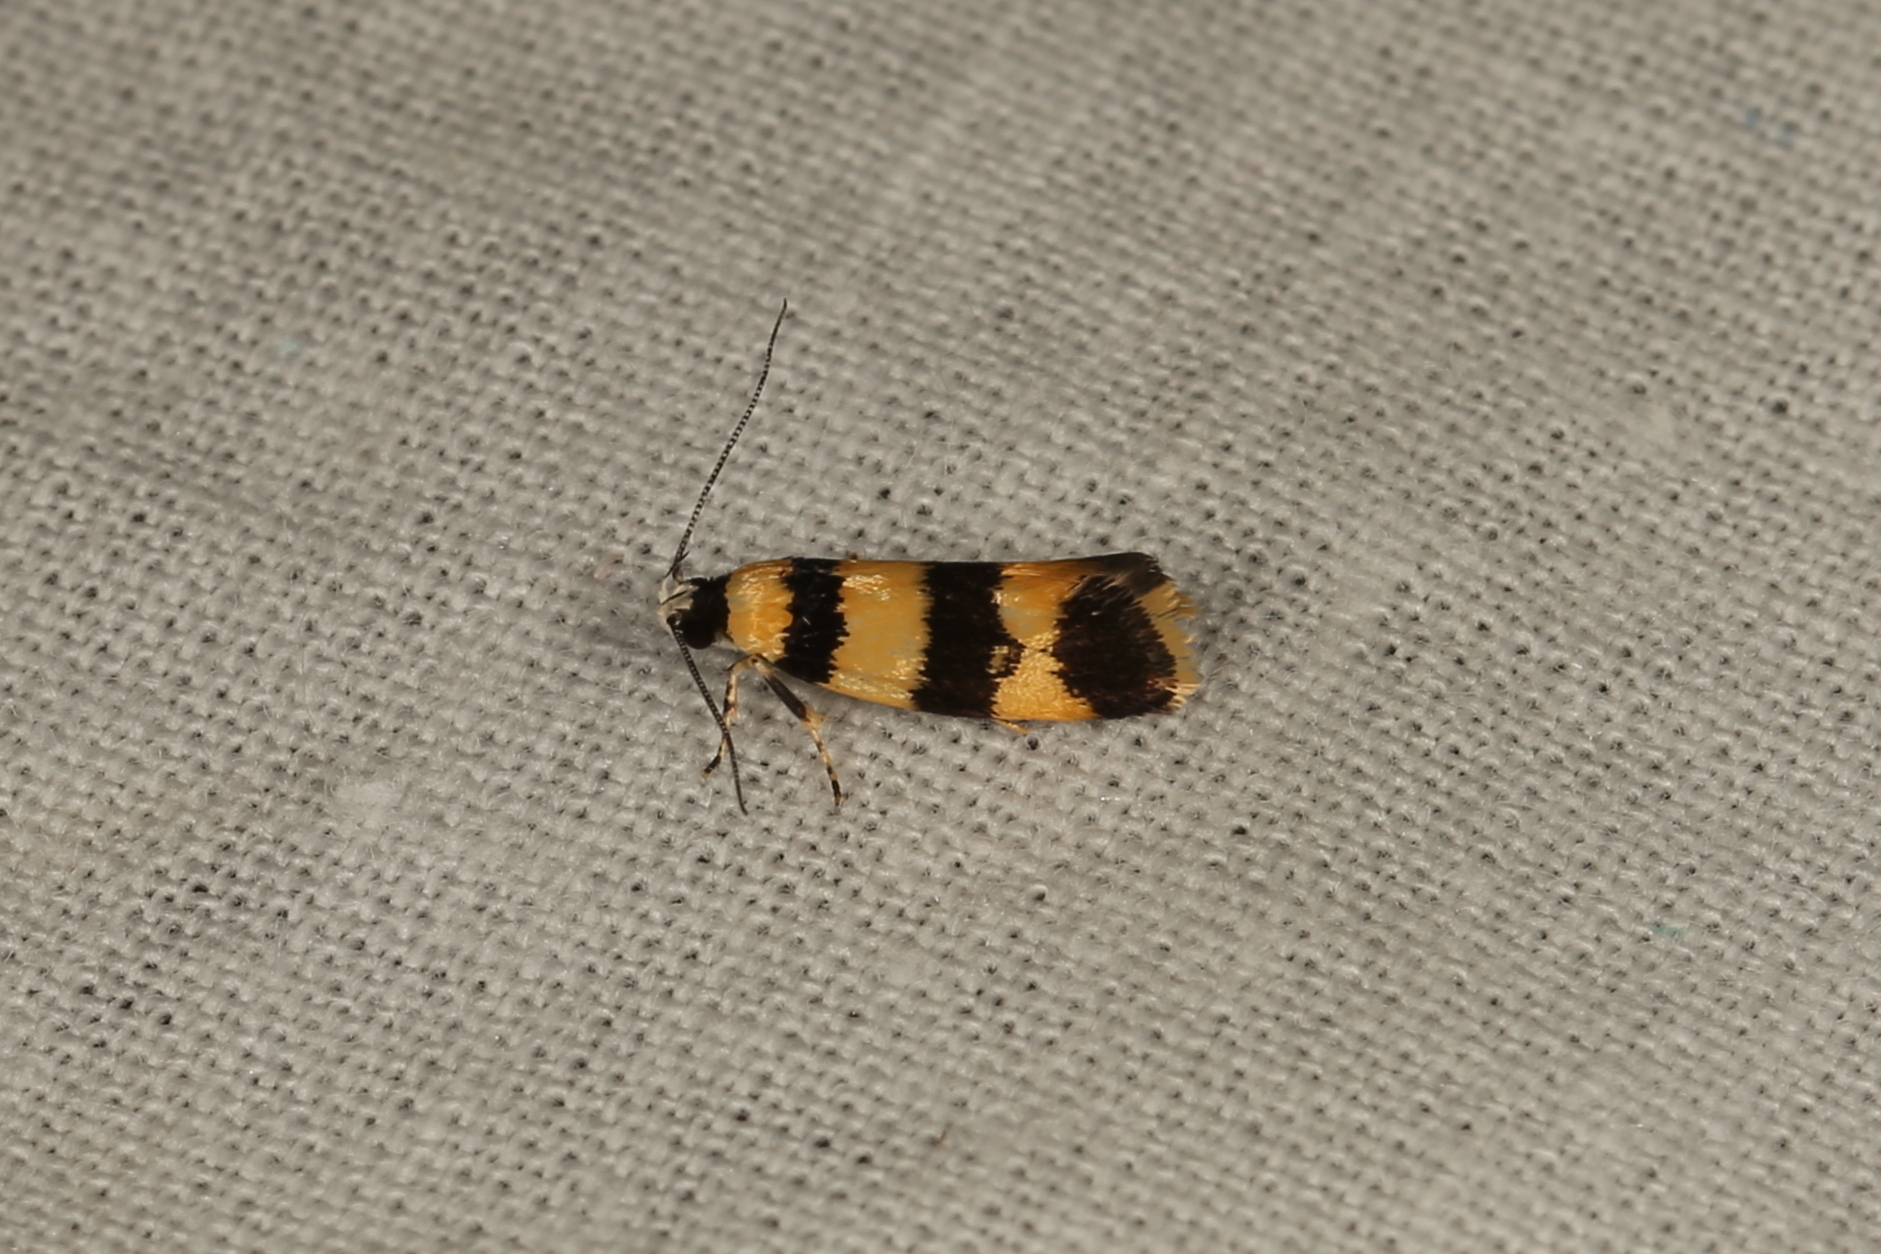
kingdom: Animalia
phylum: Arthropoda
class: Insecta
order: Lepidoptera
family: Xyloryctidae
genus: Telecrates
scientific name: Telecrates melanochrysa
